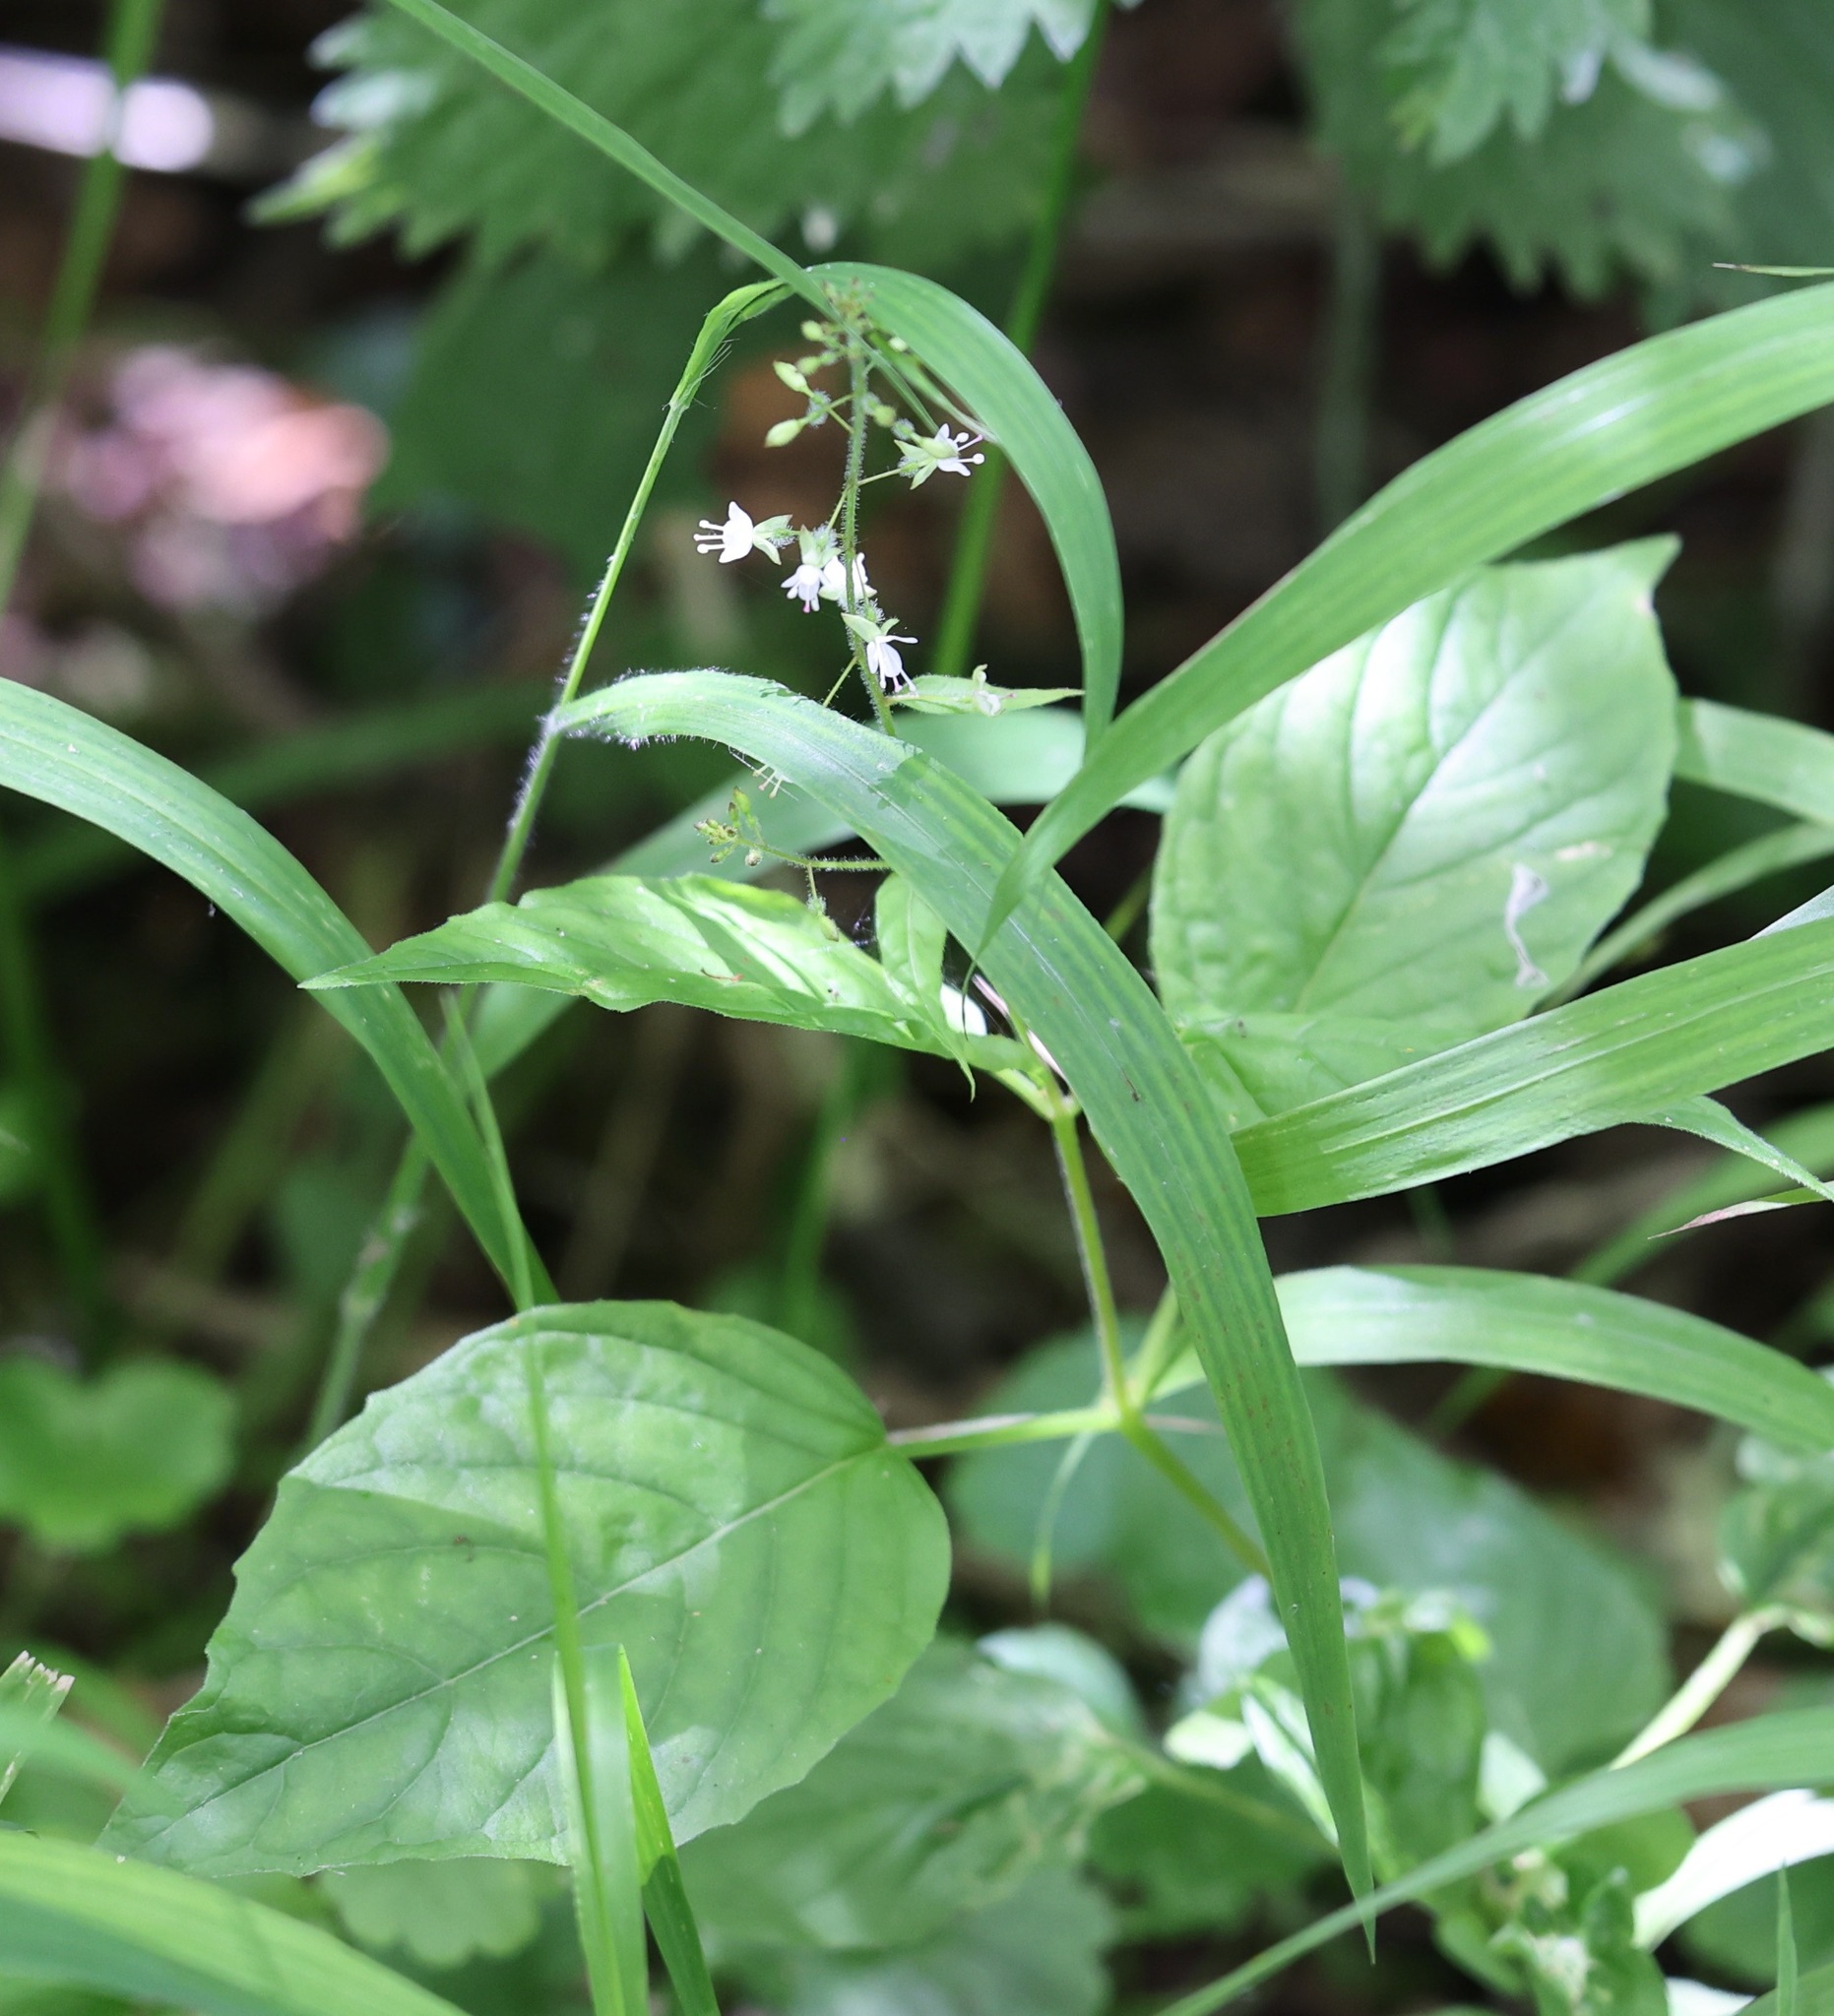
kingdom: Plantae
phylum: Tracheophyta
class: Magnoliopsida
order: Myrtales
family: Onagraceae
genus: Circaea
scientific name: Circaea lutetiana
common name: Enchanter's-nightshade
